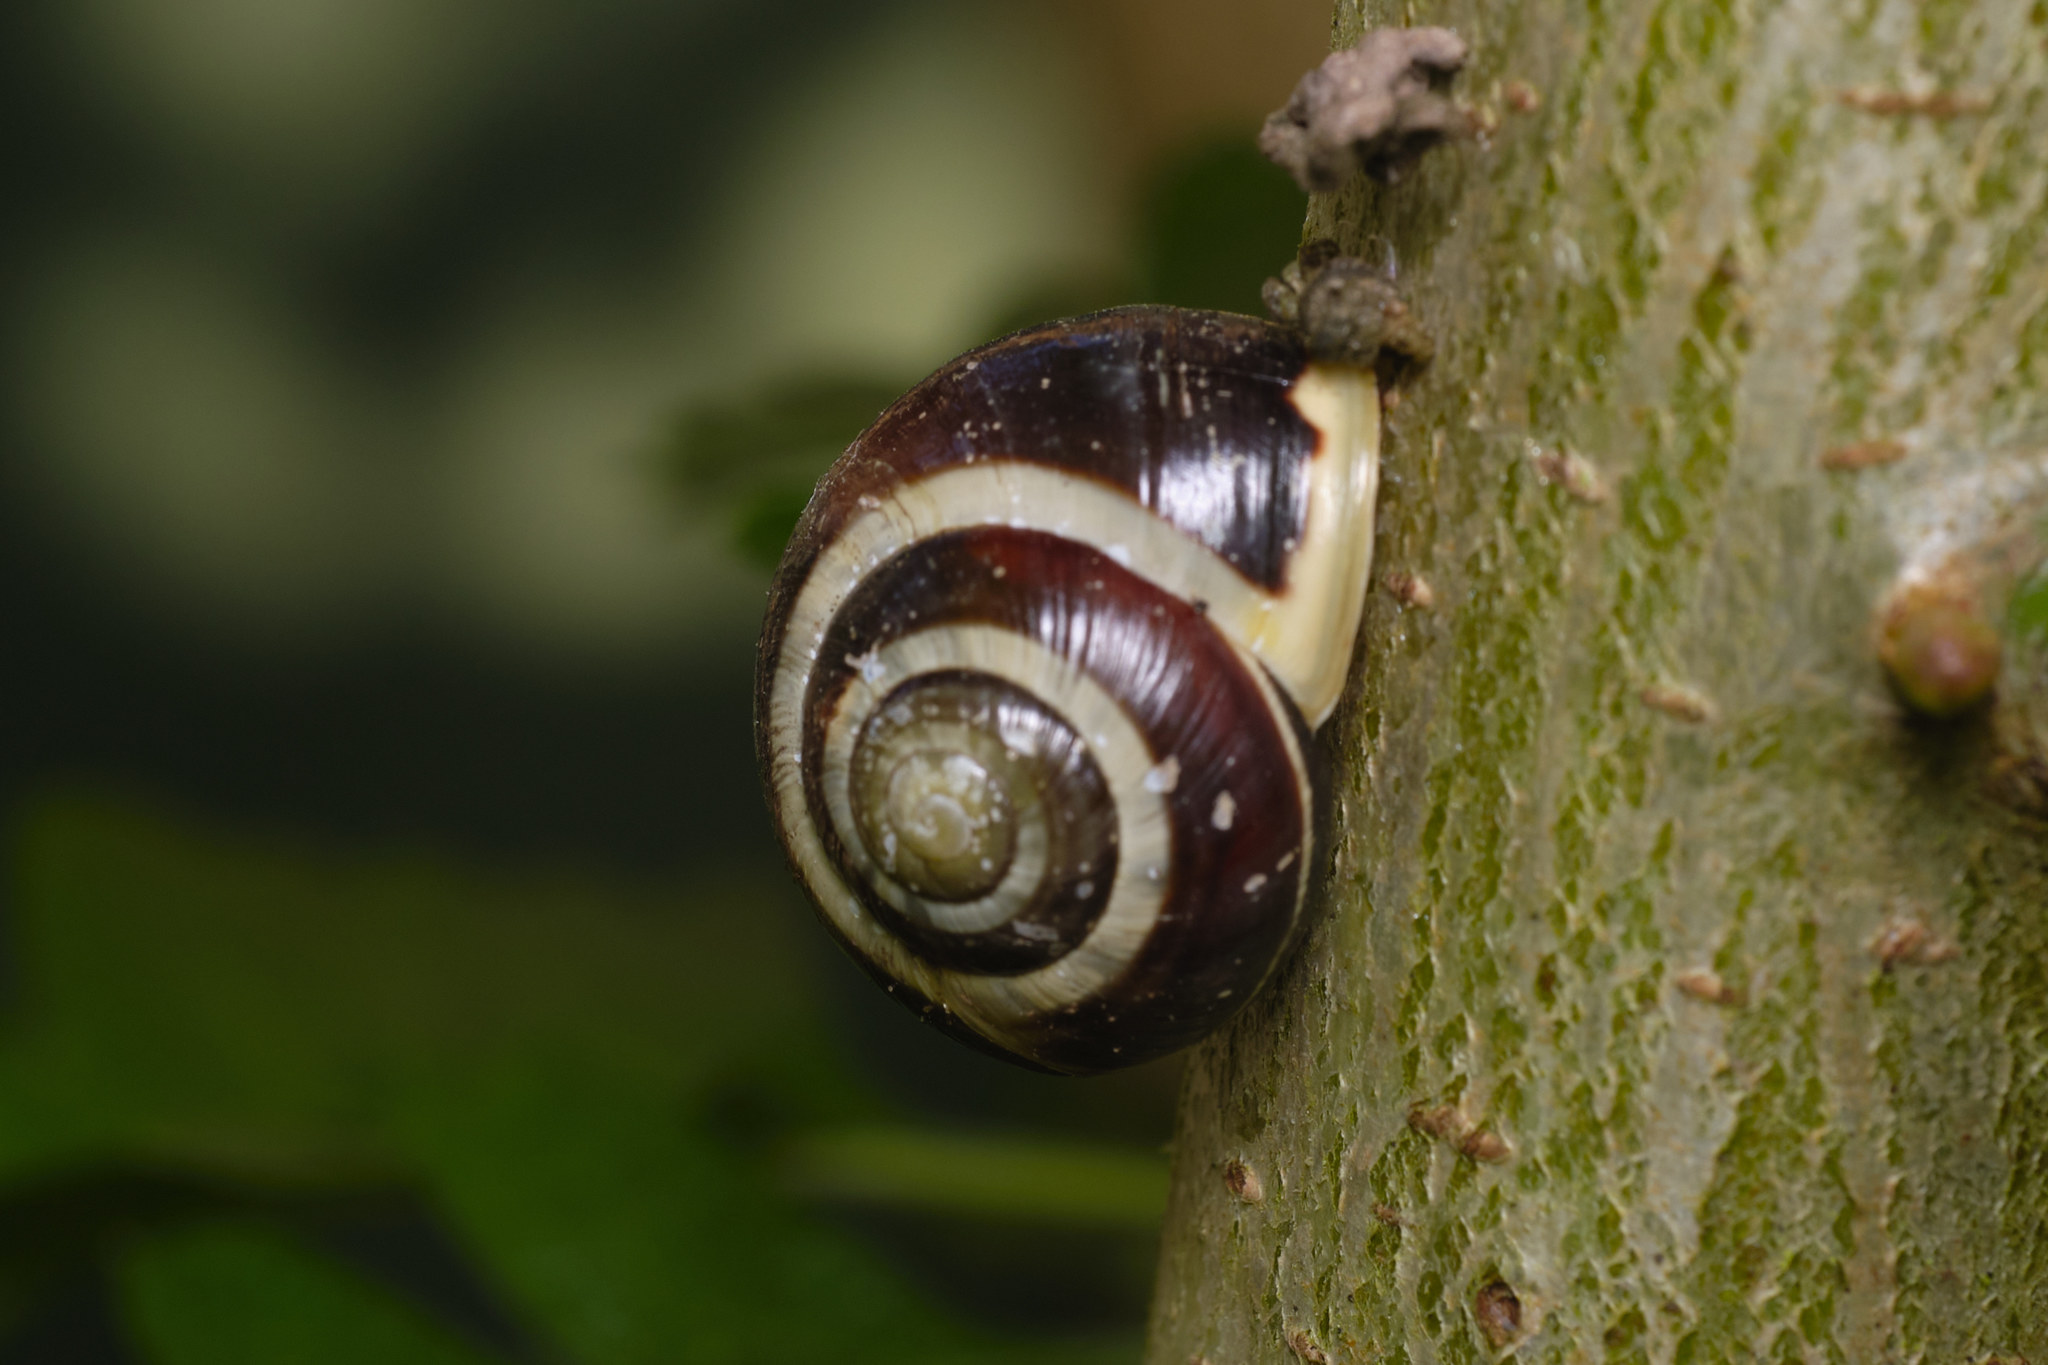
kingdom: Animalia
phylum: Mollusca
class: Gastropoda
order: Stylommatophora
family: Helicidae
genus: Cepaea
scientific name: Cepaea hortensis
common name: White-lip gardensnail
